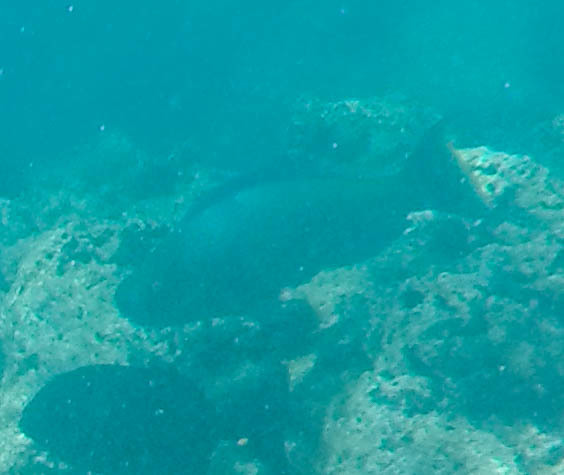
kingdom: Animalia
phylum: Chordata
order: Perciformes
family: Scaridae
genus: Scarus
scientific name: Scarus rubroviolaceus
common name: Ember parrotfish
